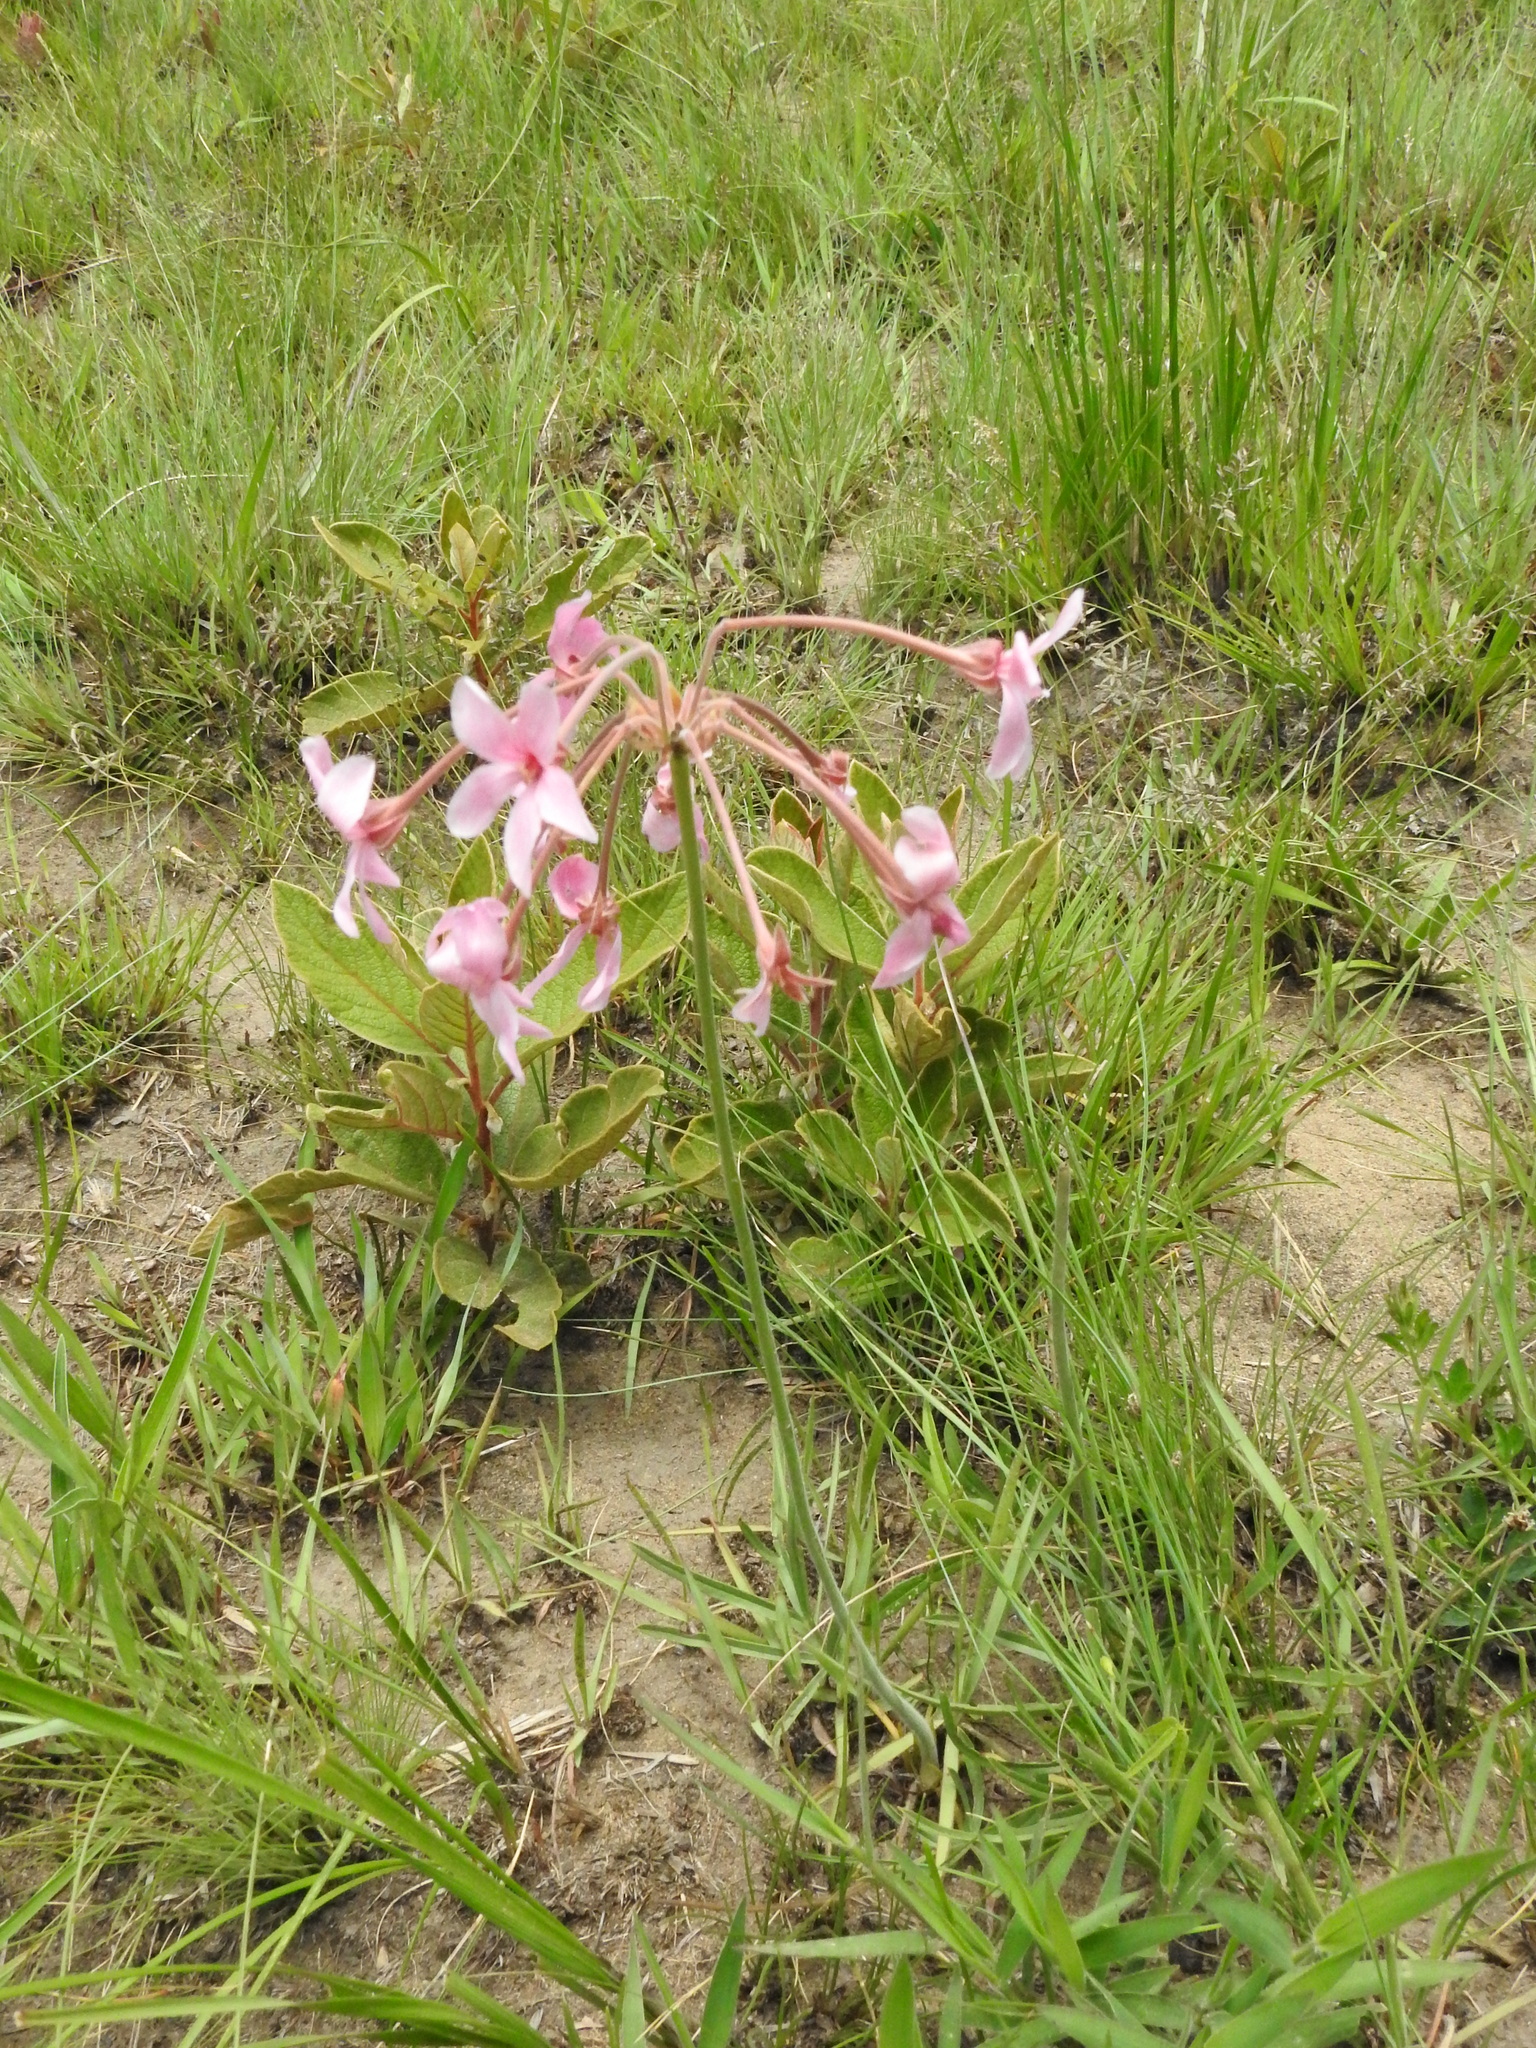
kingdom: Plantae
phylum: Tracheophyta
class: Magnoliopsida
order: Geraniales
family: Geraniaceae
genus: Pelargonium
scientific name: Pelargonium luridum
